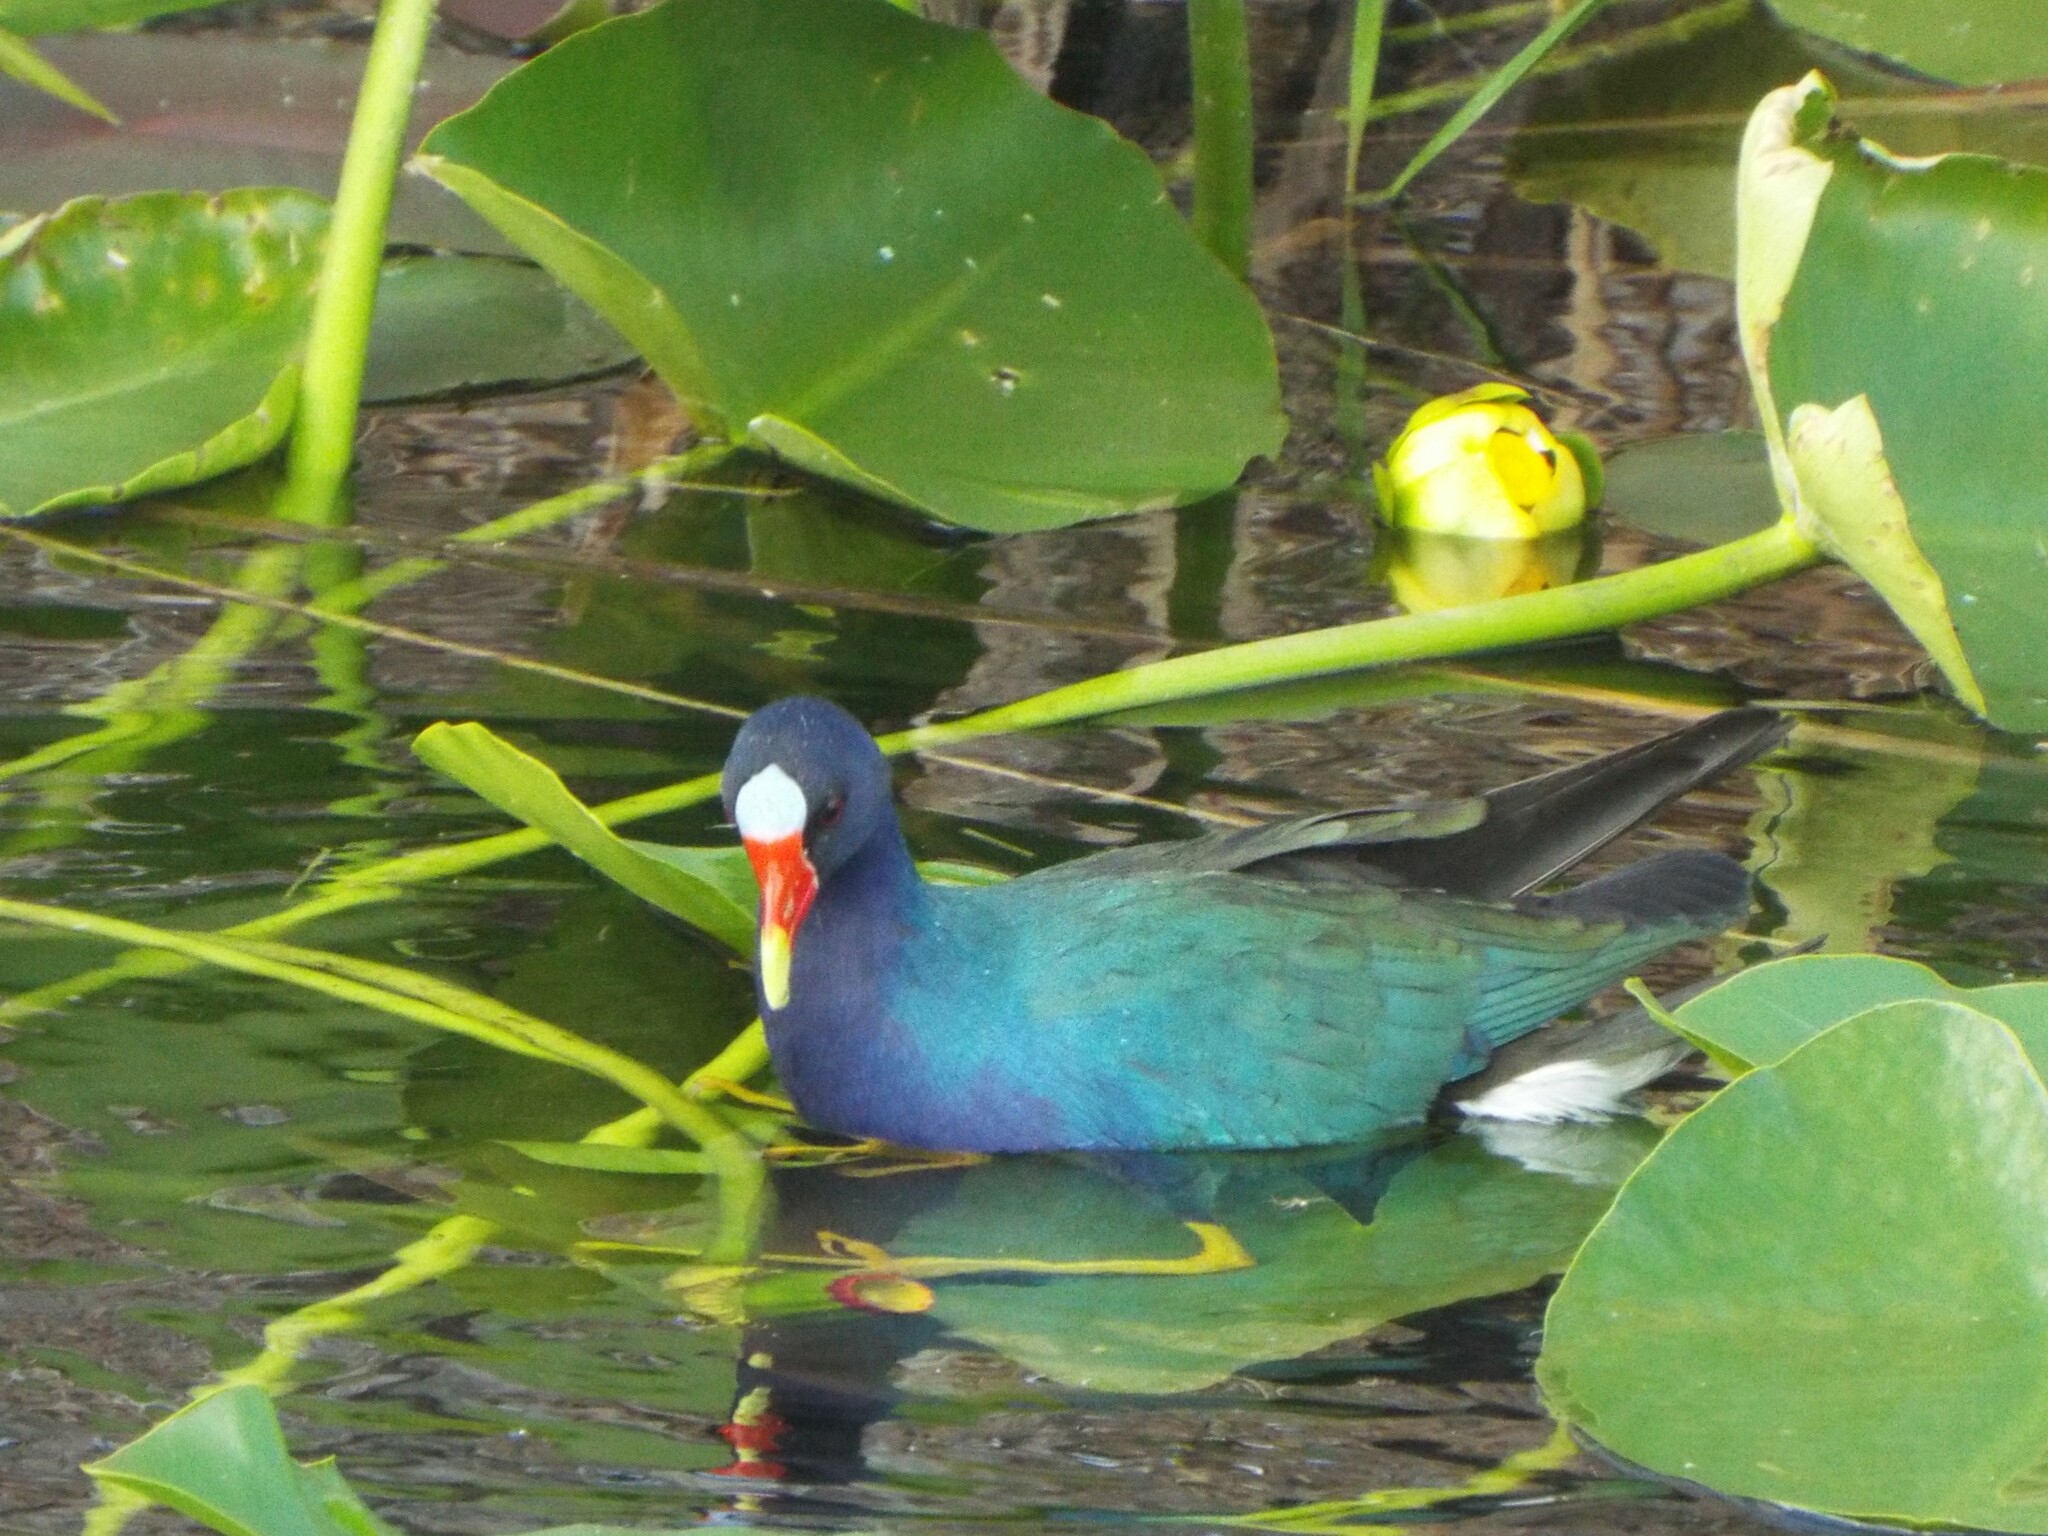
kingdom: Animalia
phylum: Chordata
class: Aves
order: Gruiformes
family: Rallidae
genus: Porphyrio
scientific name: Porphyrio martinica
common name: Purple gallinule
